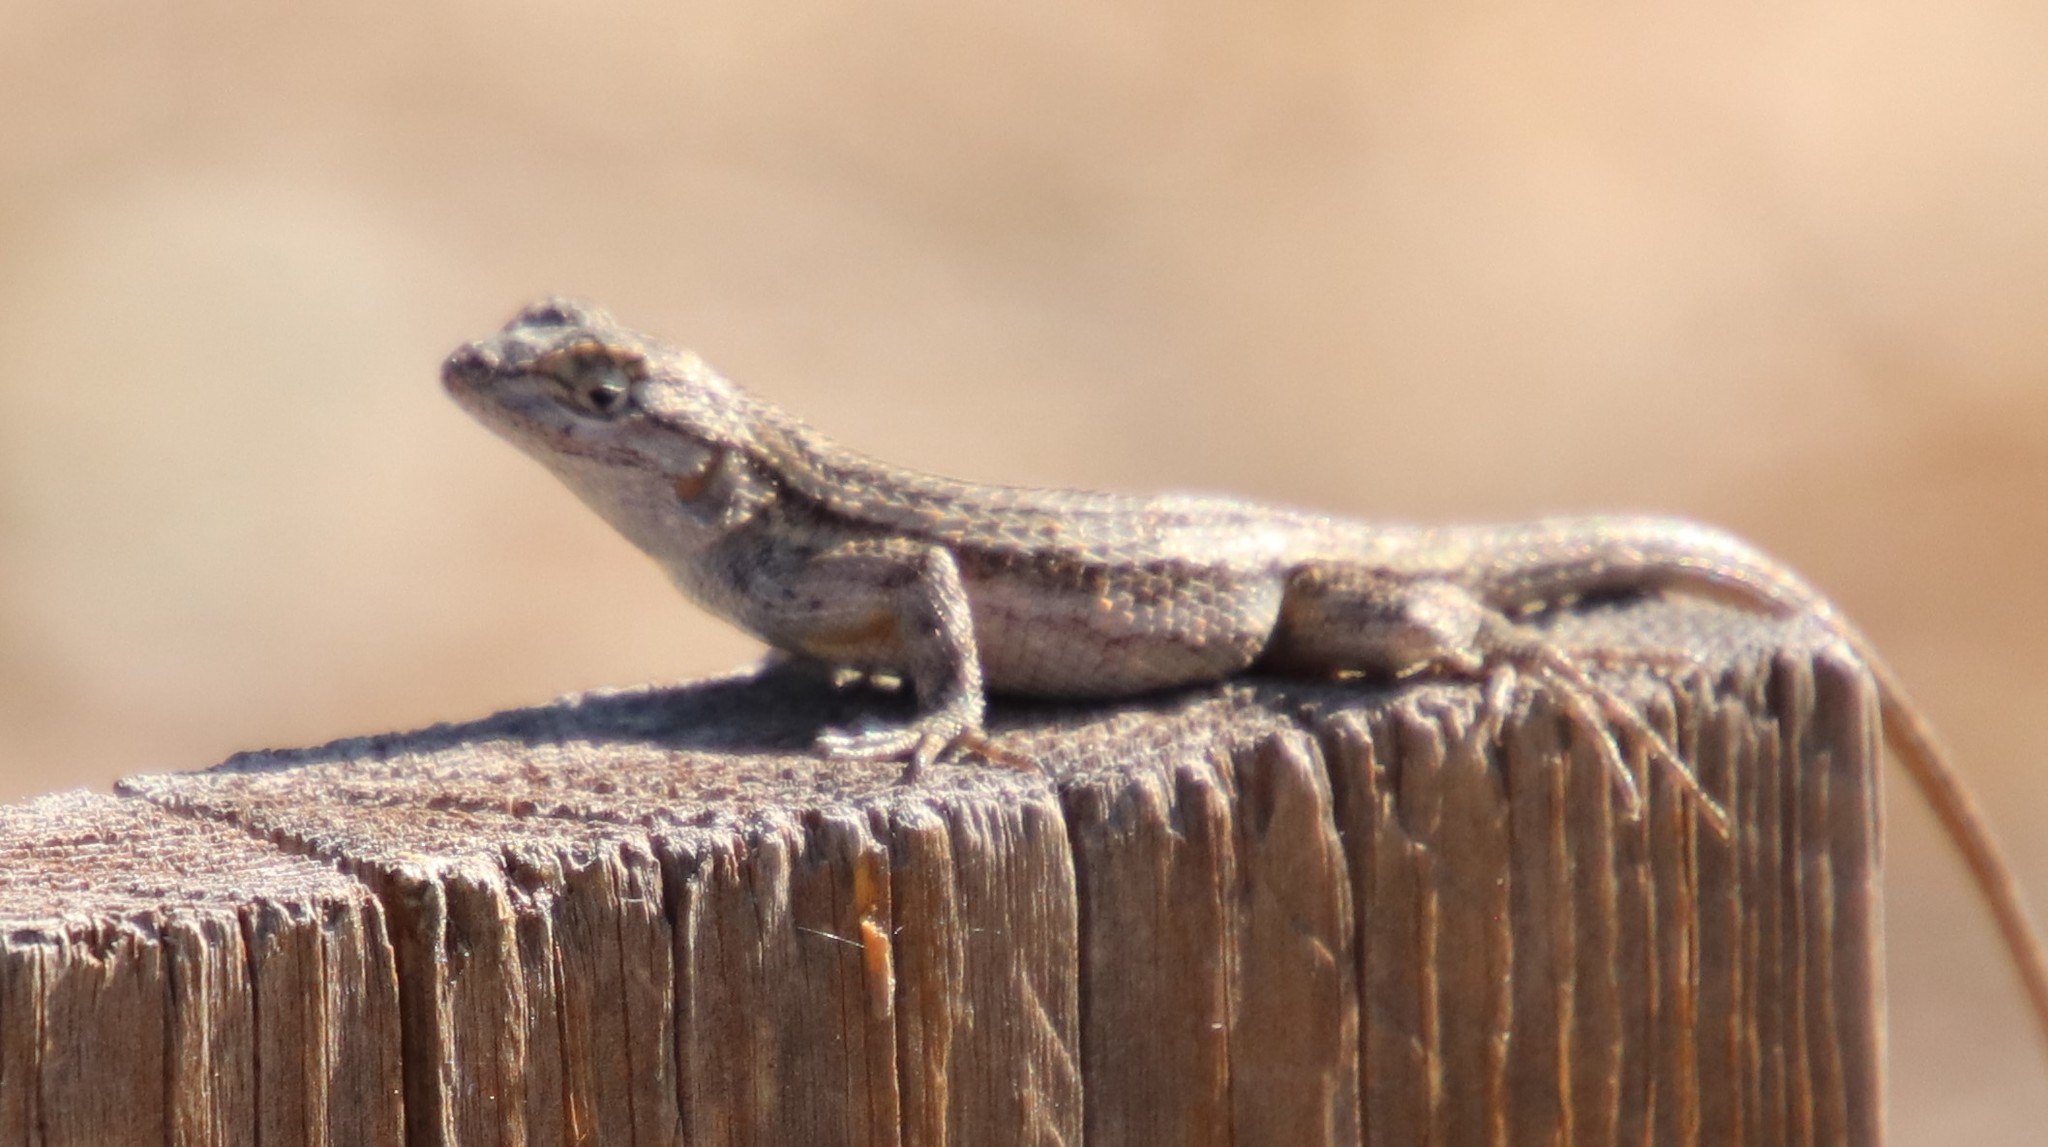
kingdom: Animalia
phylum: Chordata
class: Squamata
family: Phrynosomatidae
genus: Sceloporus
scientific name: Sceloporus occidentalis
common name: Western fence lizard
